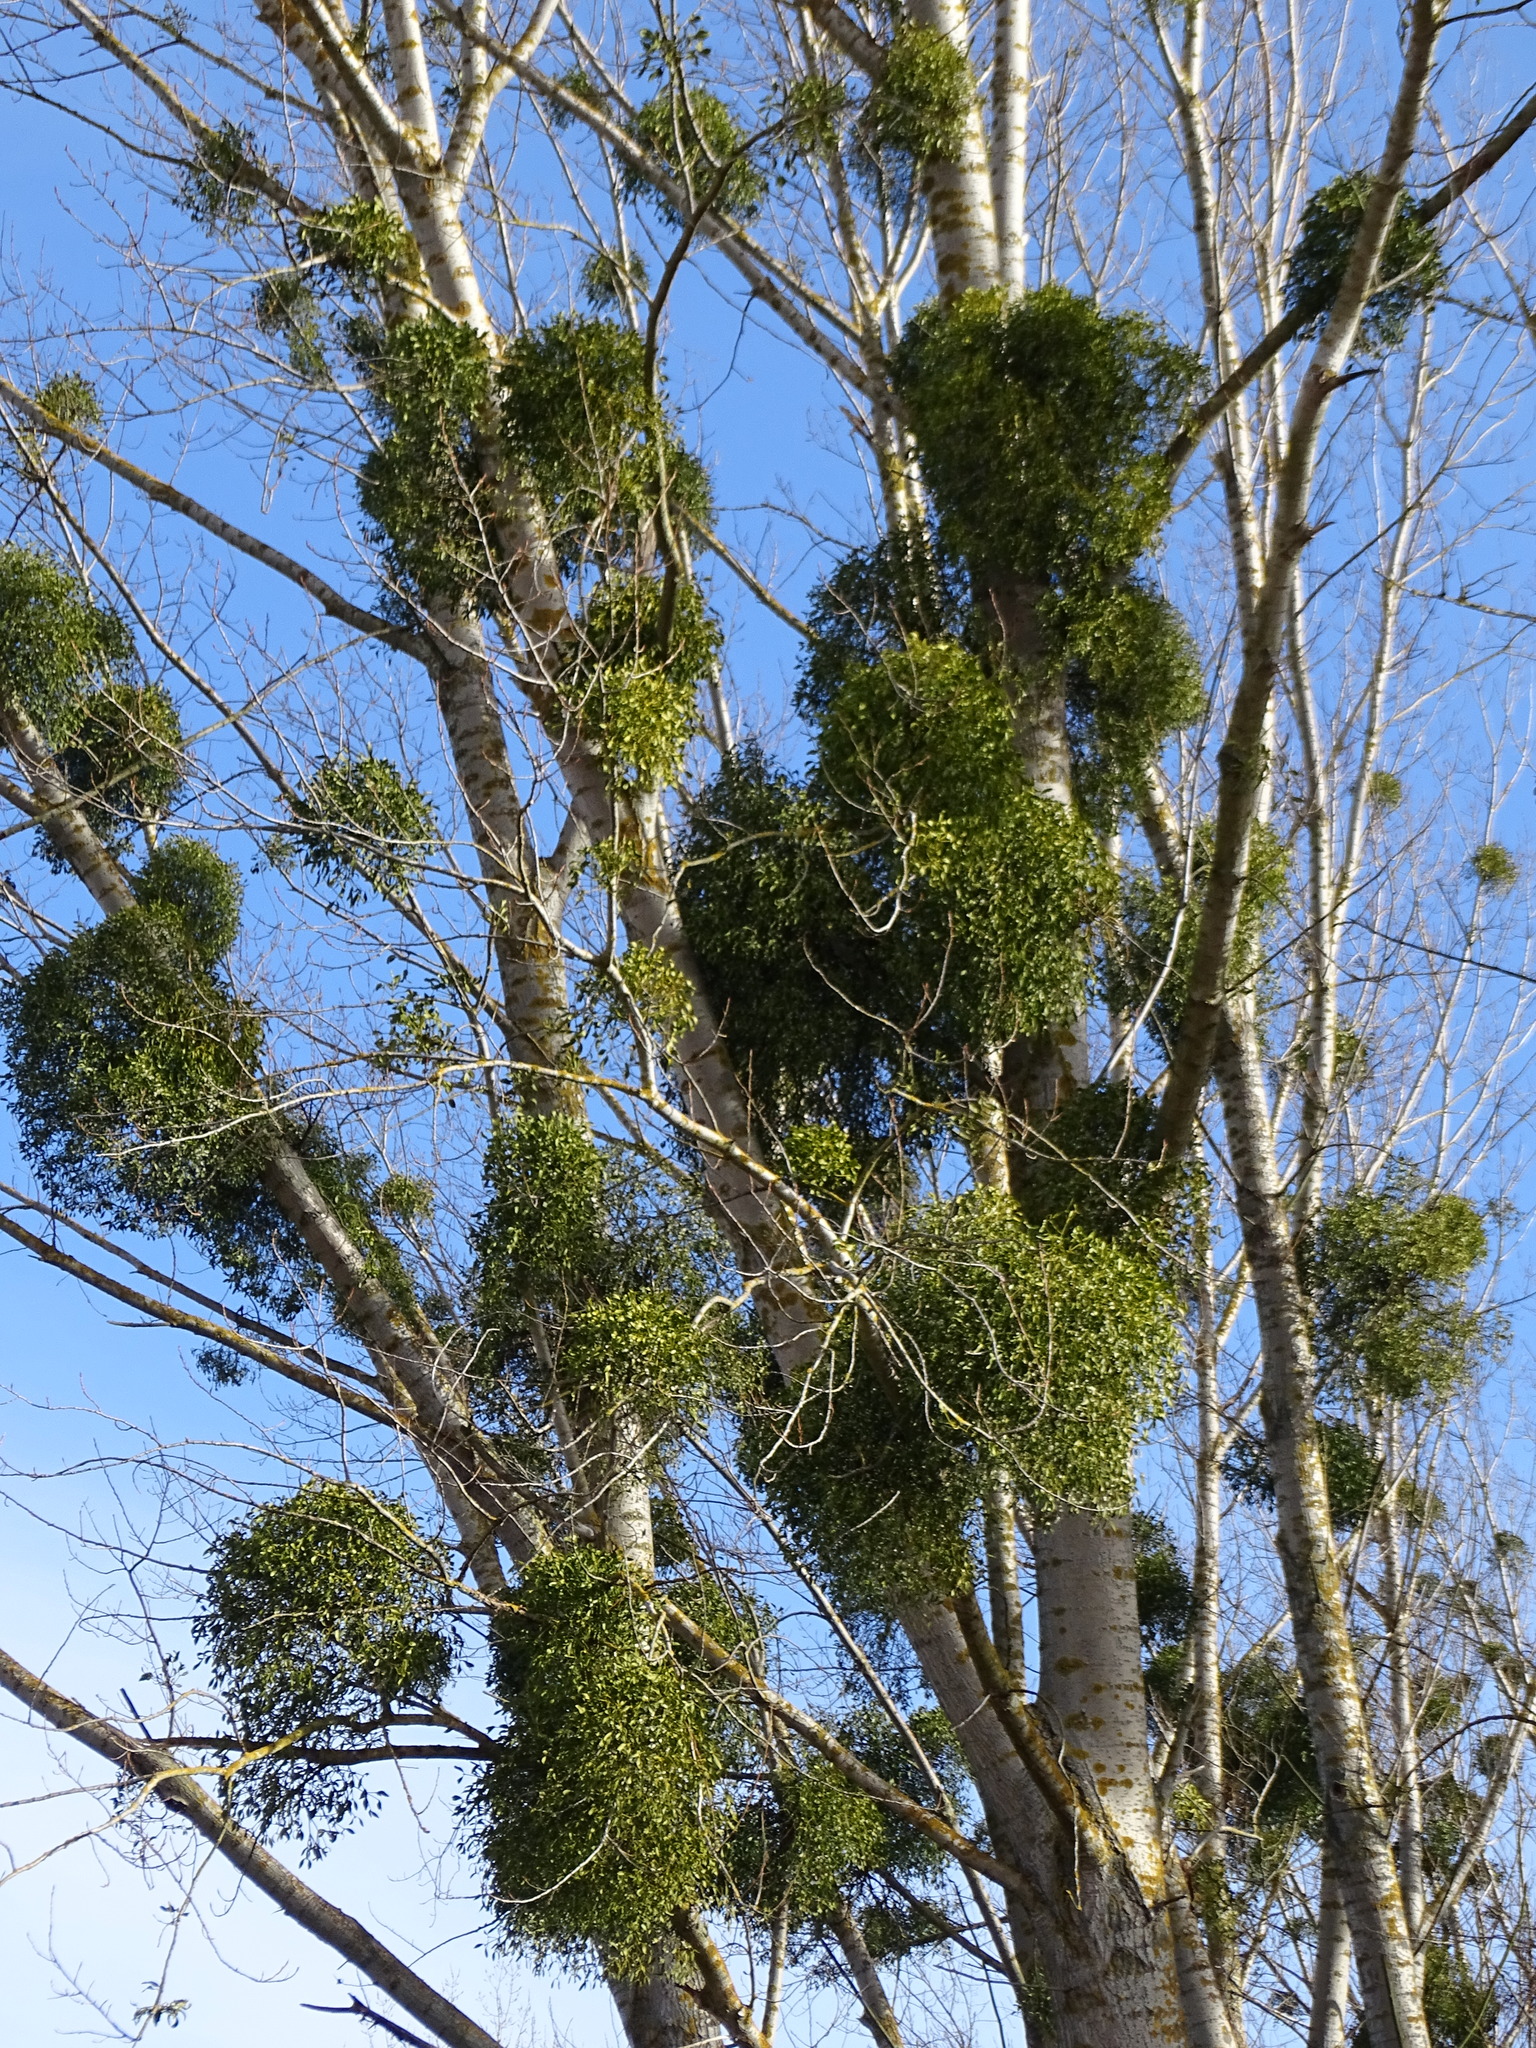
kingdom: Plantae
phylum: Tracheophyta
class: Magnoliopsida
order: Santalales
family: Viscaceae
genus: Viscum
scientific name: Viscum album
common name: Mistletoe
